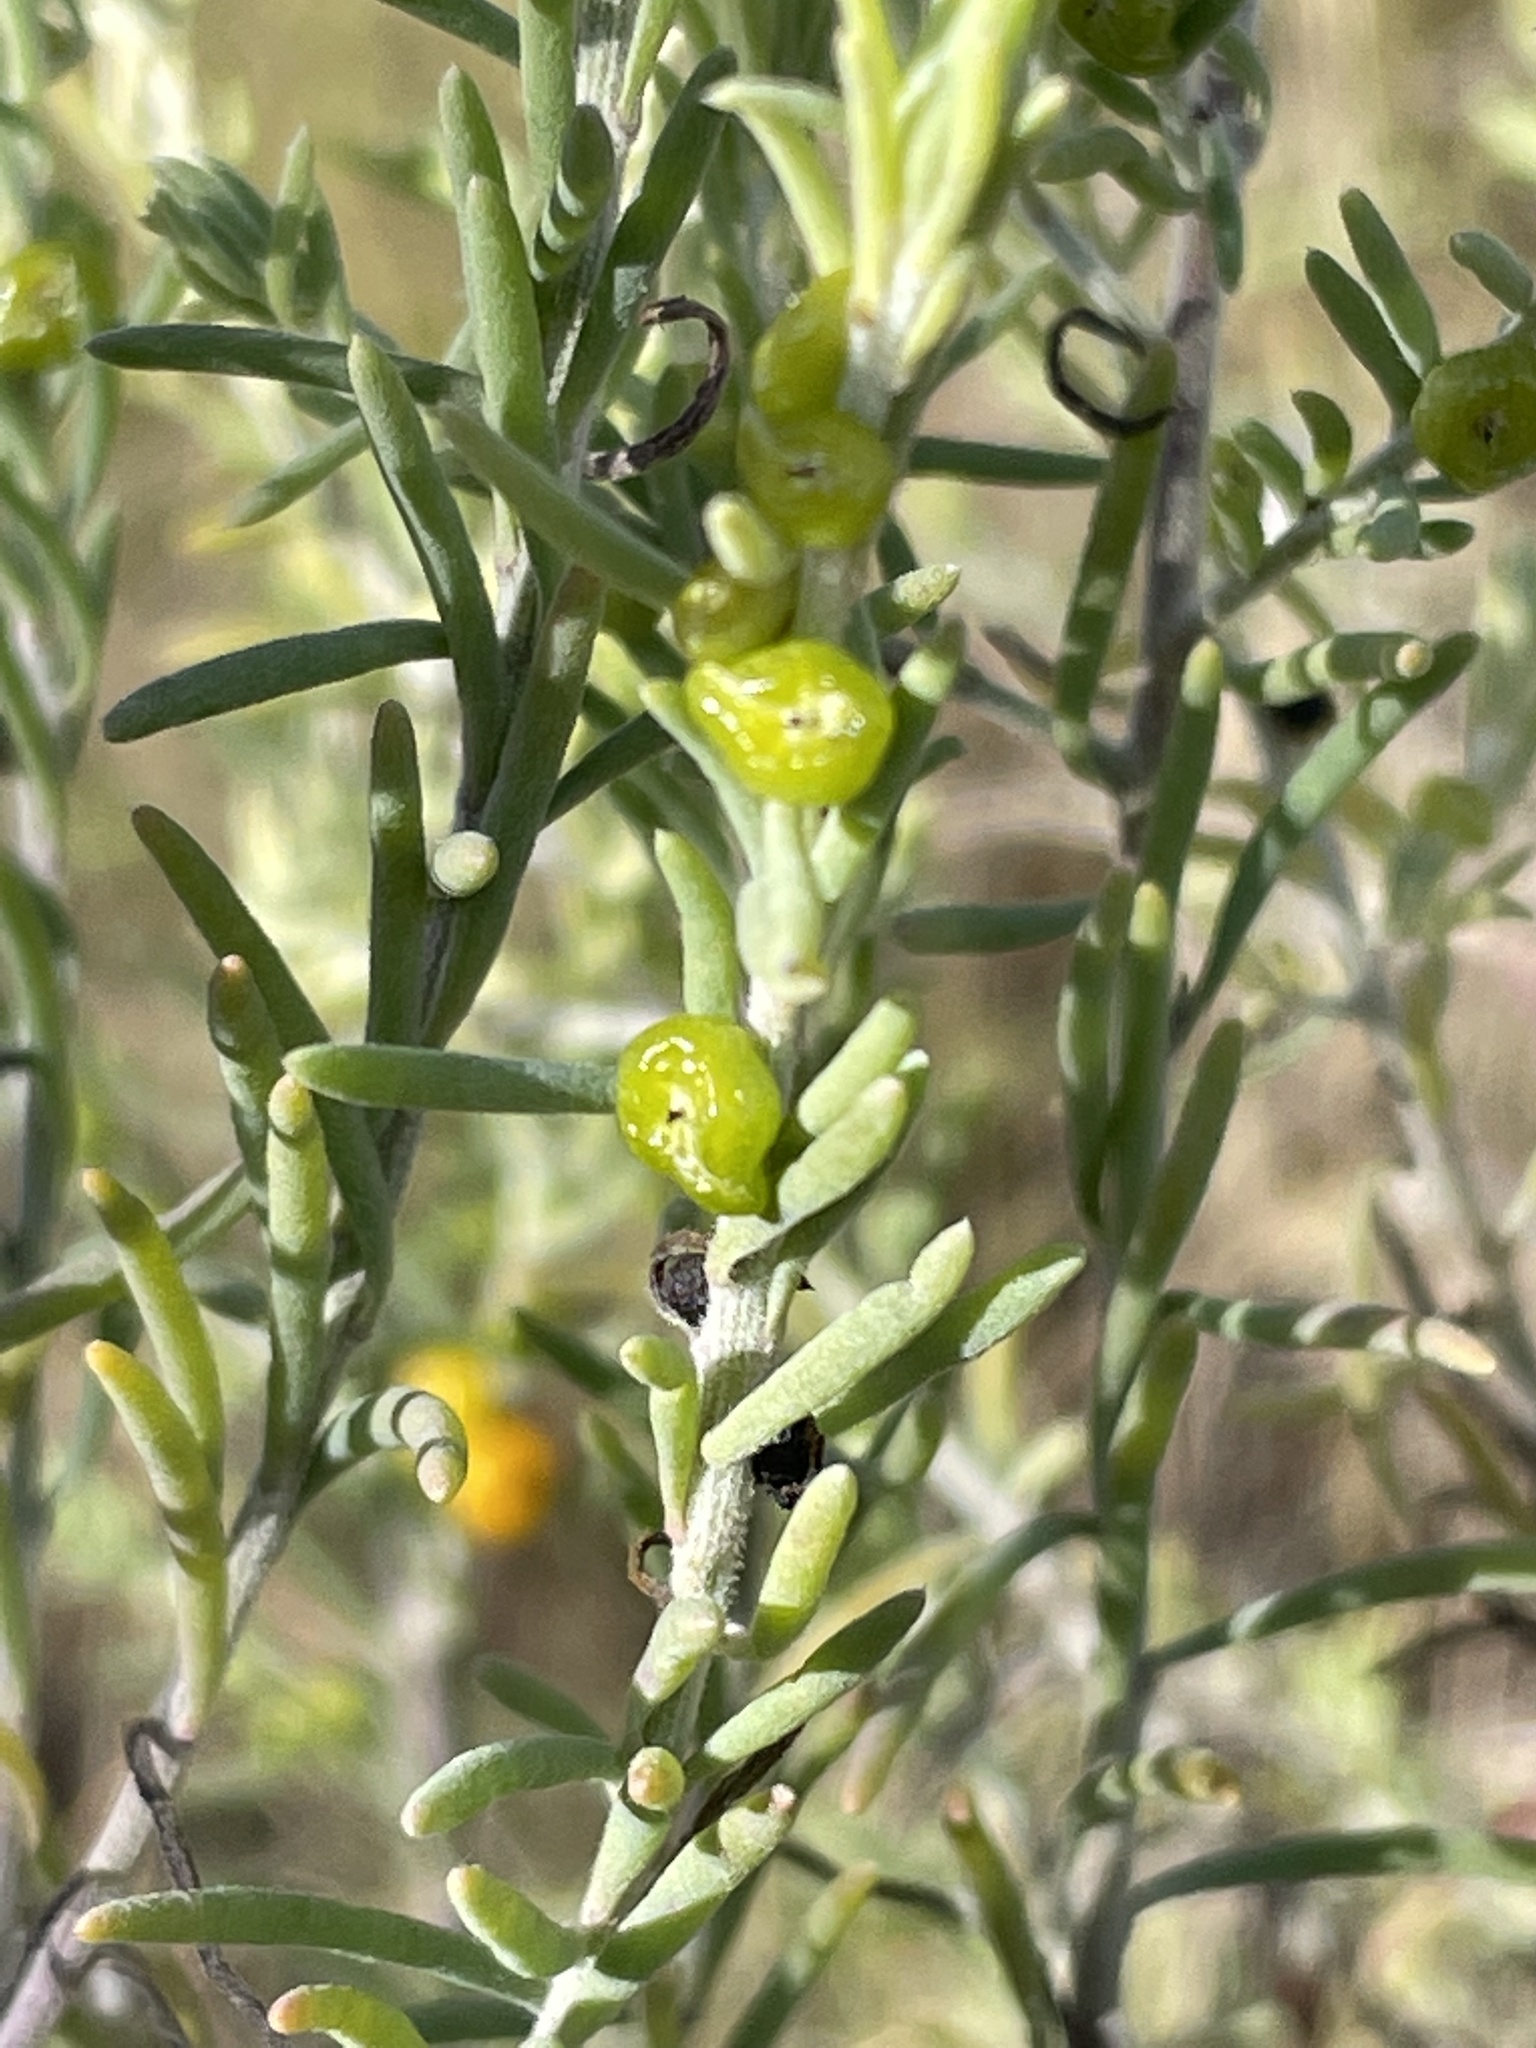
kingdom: Plantae
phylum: Tracheophyta
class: Magnoliopsida
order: Caryophyllales
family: Amaranthaceae
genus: Enchylaena
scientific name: Enchylaena tomentosa
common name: Ruby saltbush
